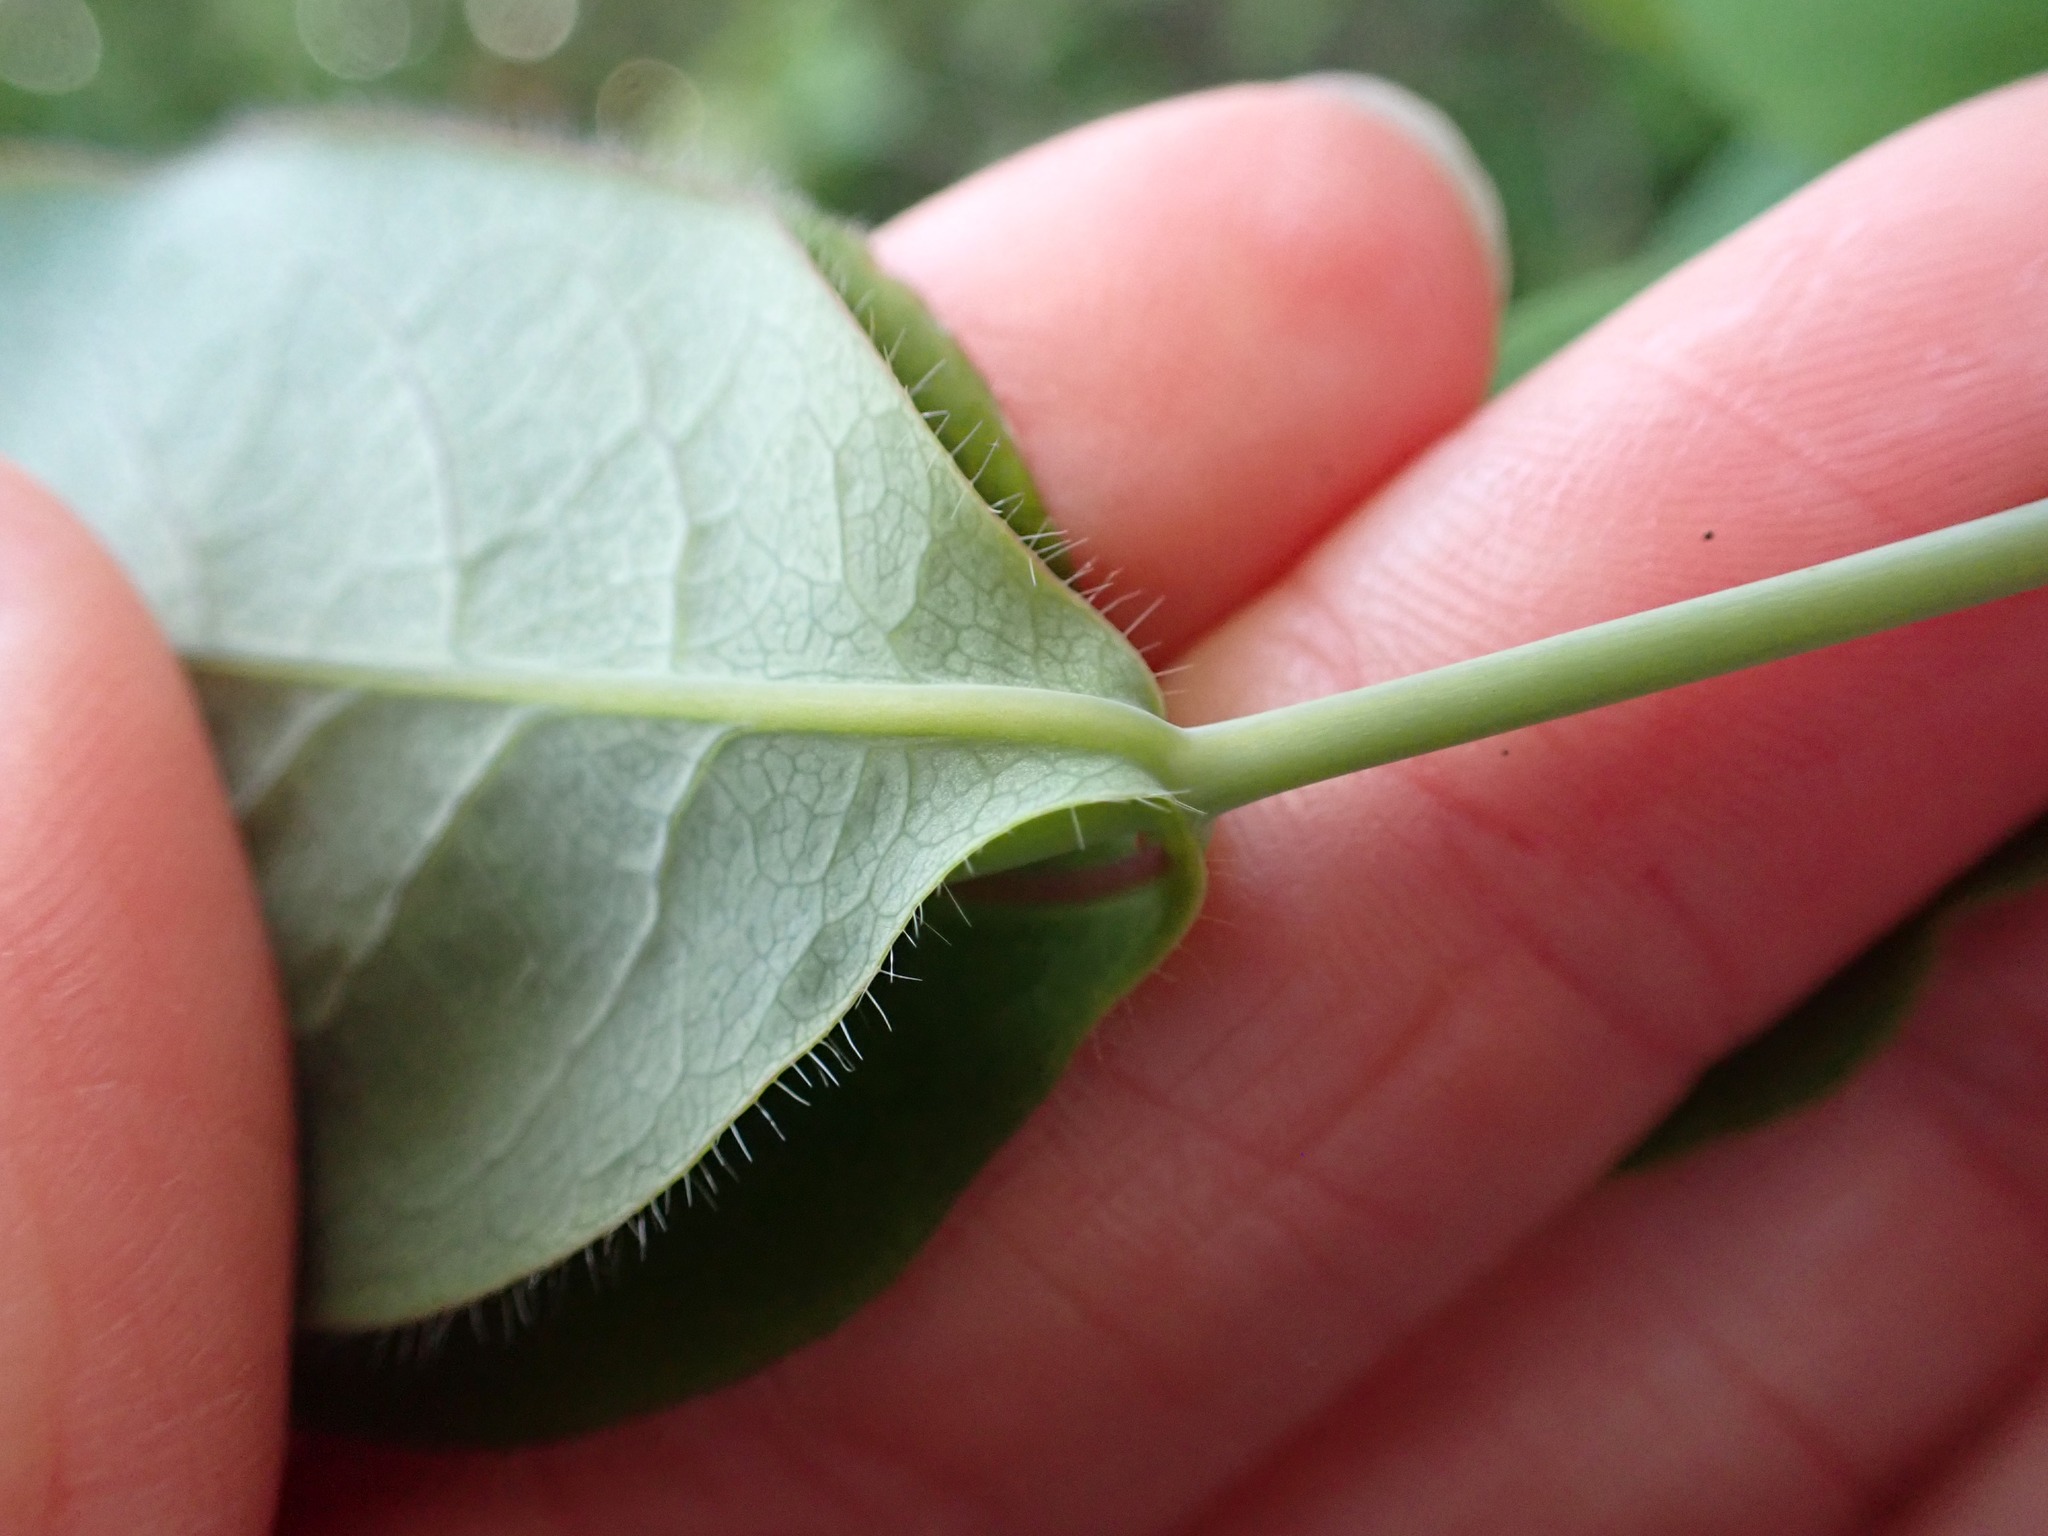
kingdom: Plantae
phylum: Tracheophyta
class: Magnoliopsida
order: Dipsacales
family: Caprifoliaceae
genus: Lonicera
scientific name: Lonicera ciliosa
